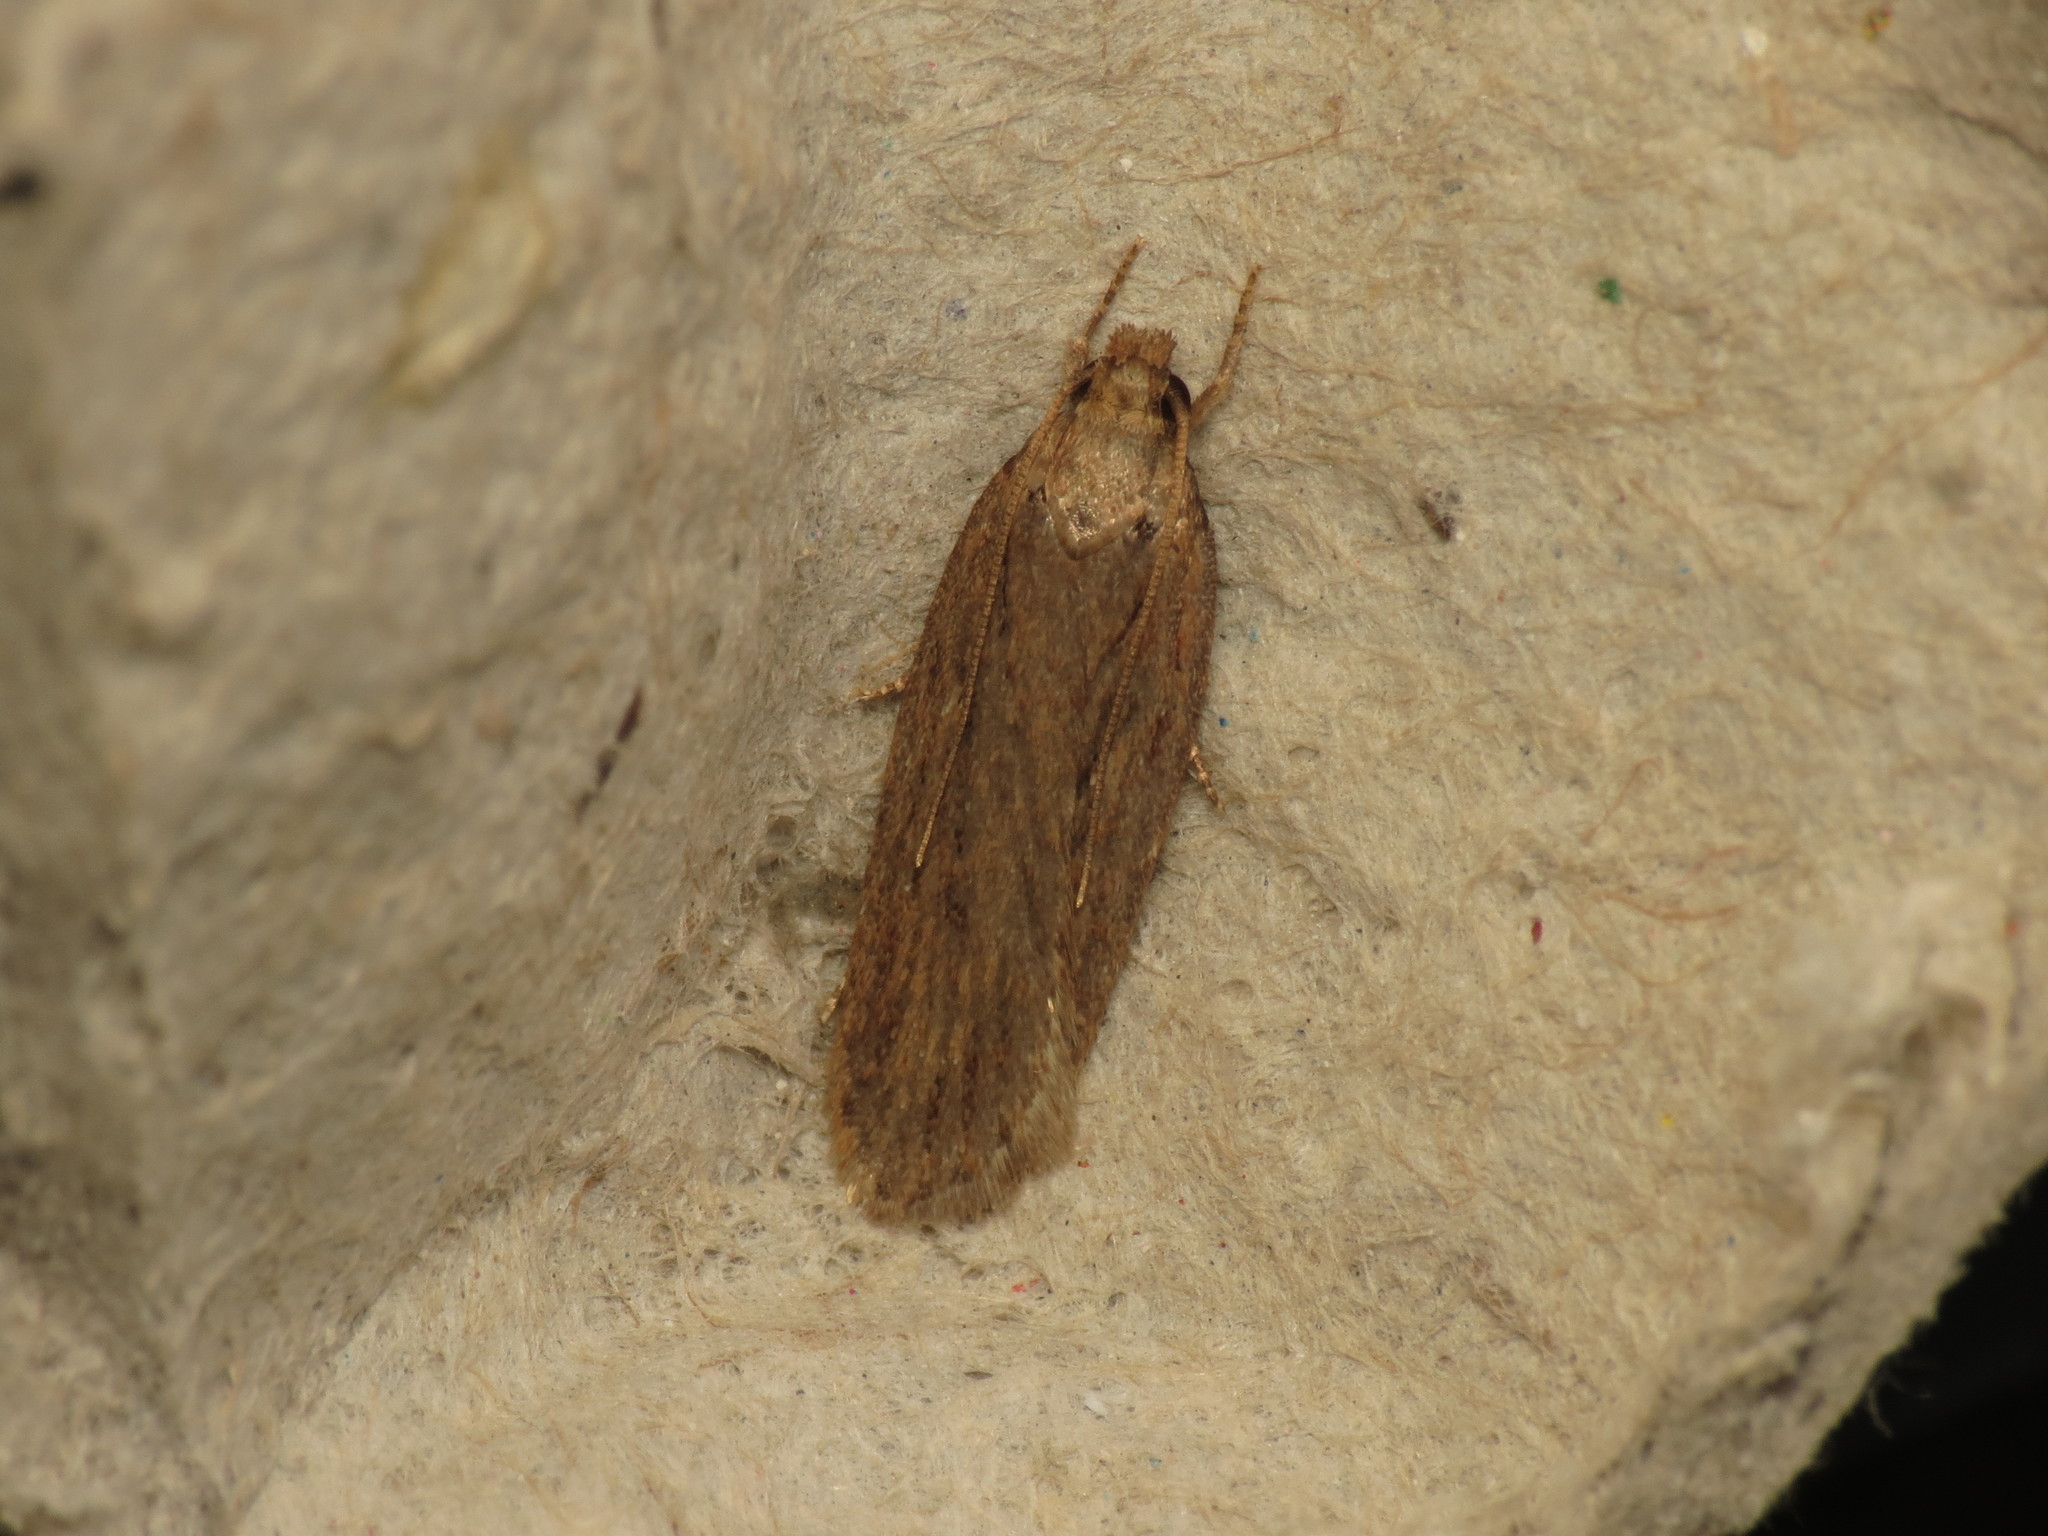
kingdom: Animalia
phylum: Arthropoda
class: Insecta
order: Lepidoptera
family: Depressariidae
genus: Depressaria
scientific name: Depressaria apiella
